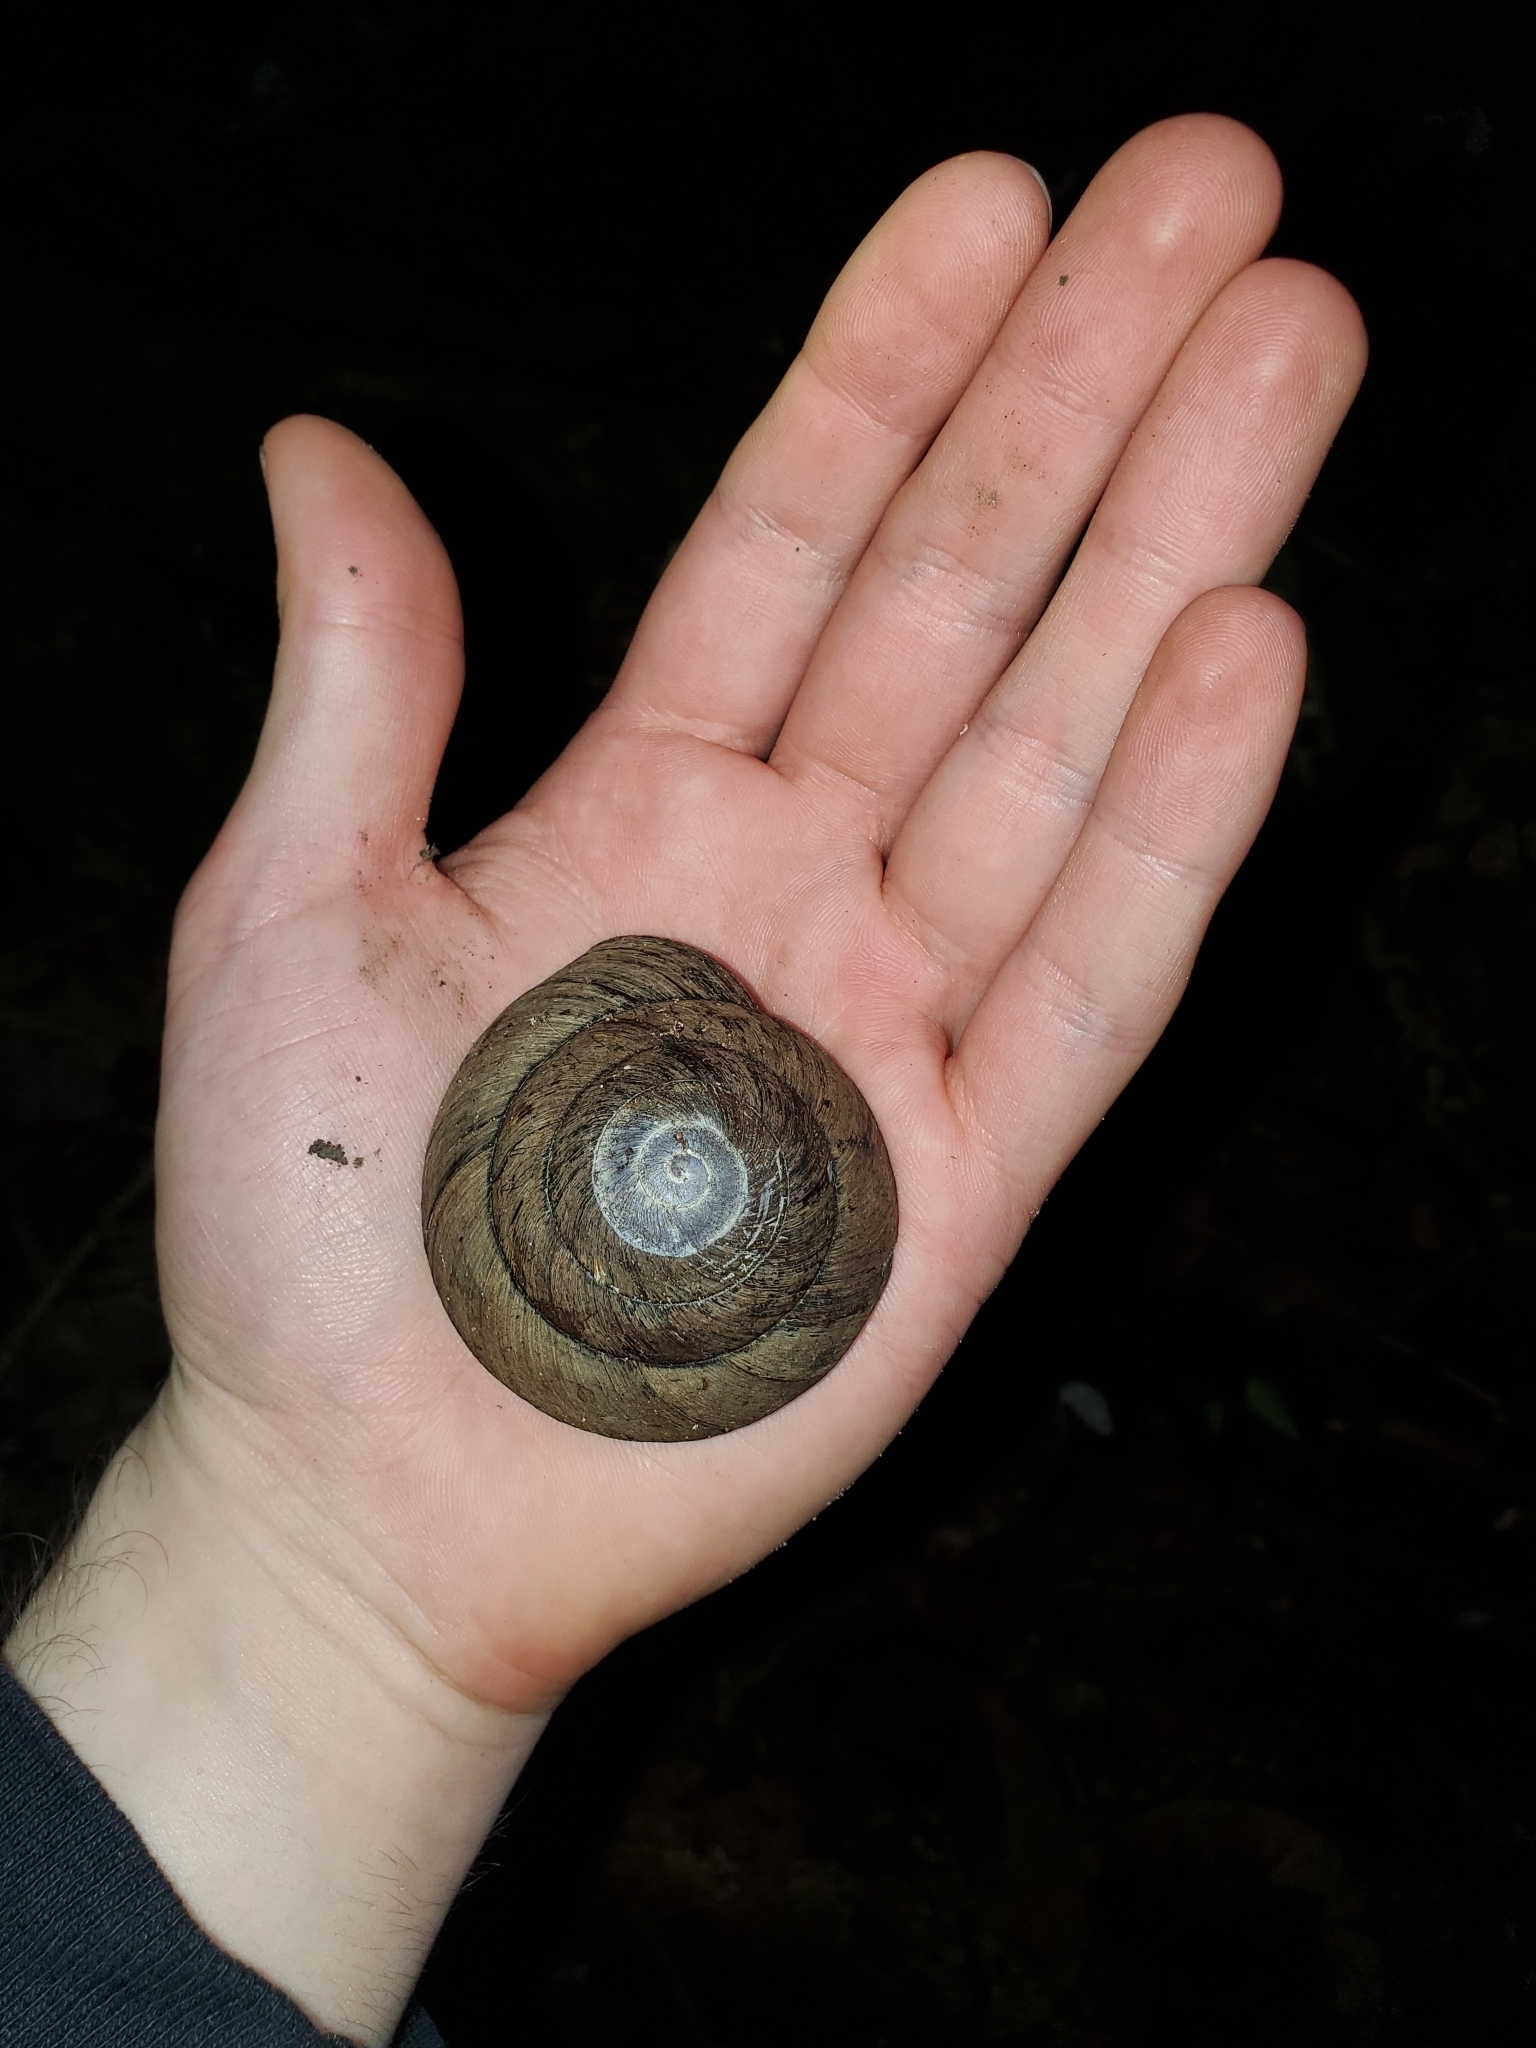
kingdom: Animalia
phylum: Mollusca
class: Gastropoda
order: Stylommatophora
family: Solaropsidae
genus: Caracolus
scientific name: Caracolus carocolla
